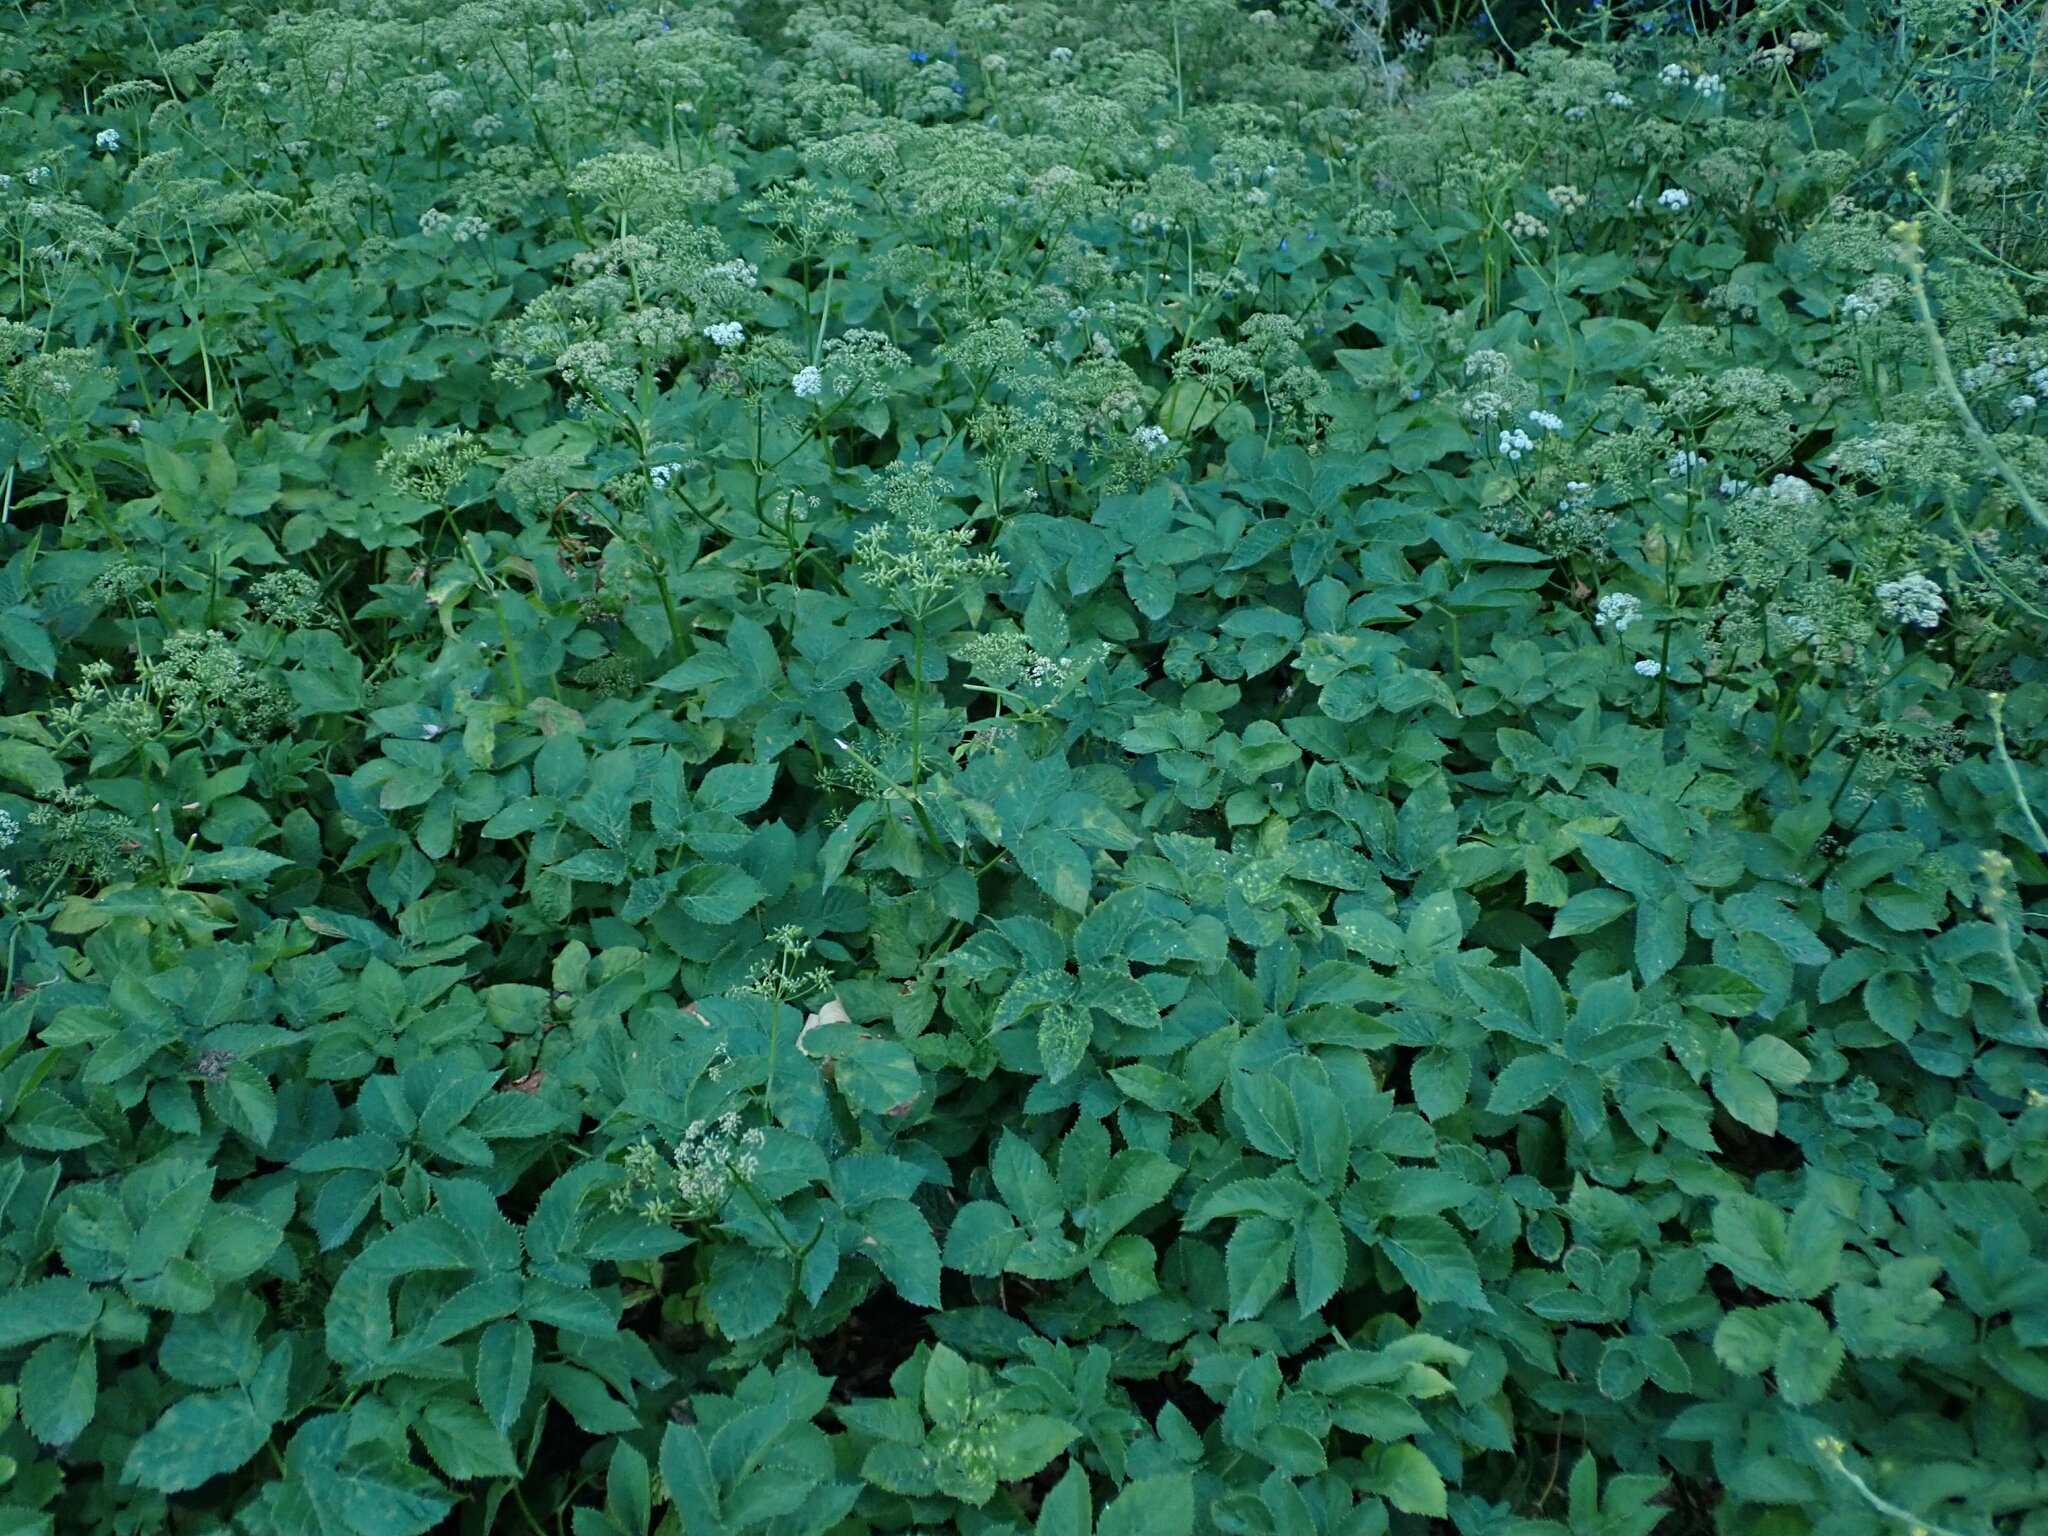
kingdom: Plantae
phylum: Tracheophyta
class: Magnoliopsida
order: Apiales
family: Apiaceae
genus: Aegopodium
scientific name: Aegopodium podagraria
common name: Ground-elder
